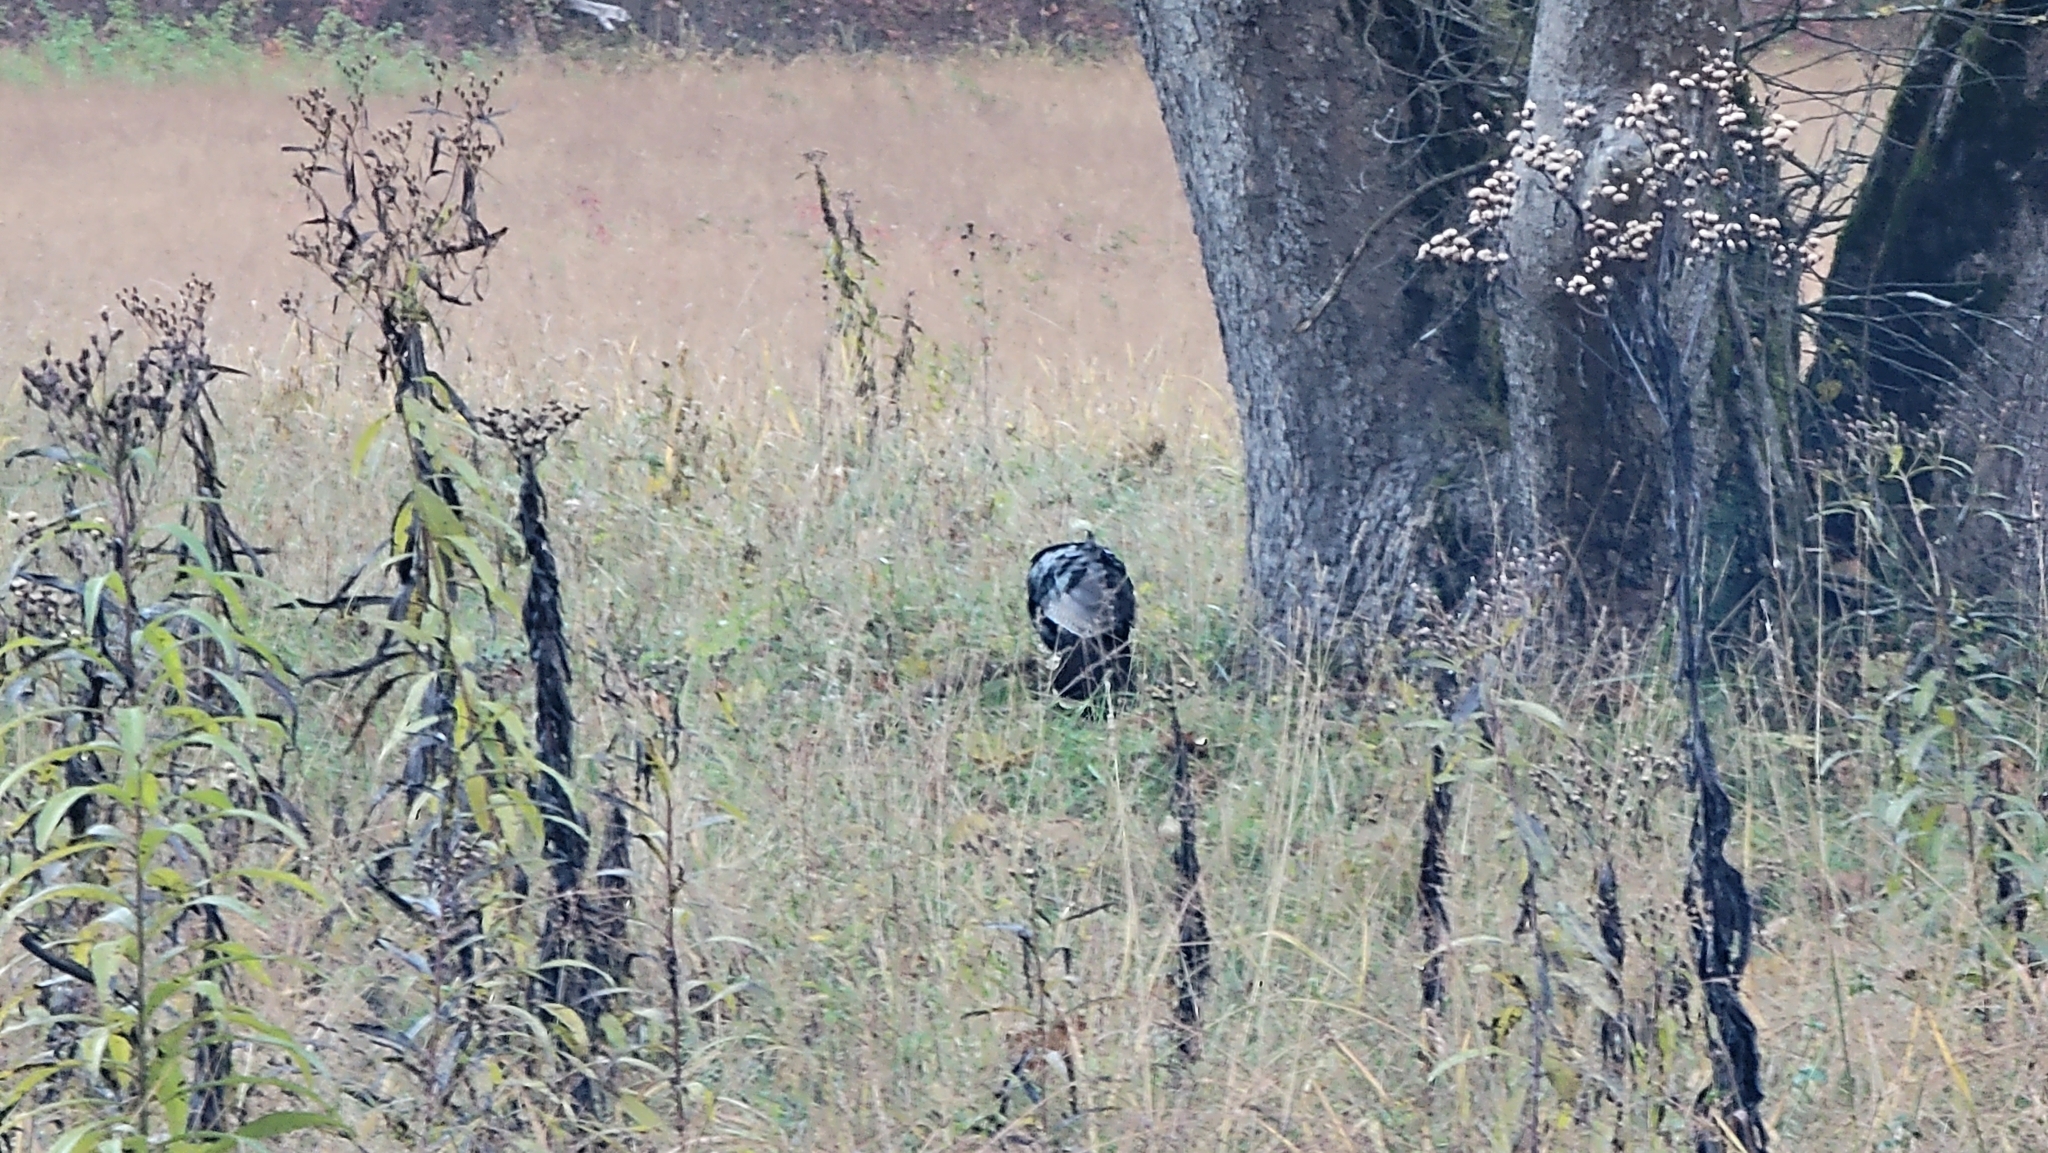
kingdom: Animalia
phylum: Chordata
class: Aves
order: Galliformes
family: Phasianidae
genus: Meleagris
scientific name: Meleagris gallopavo
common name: Wild turkey
